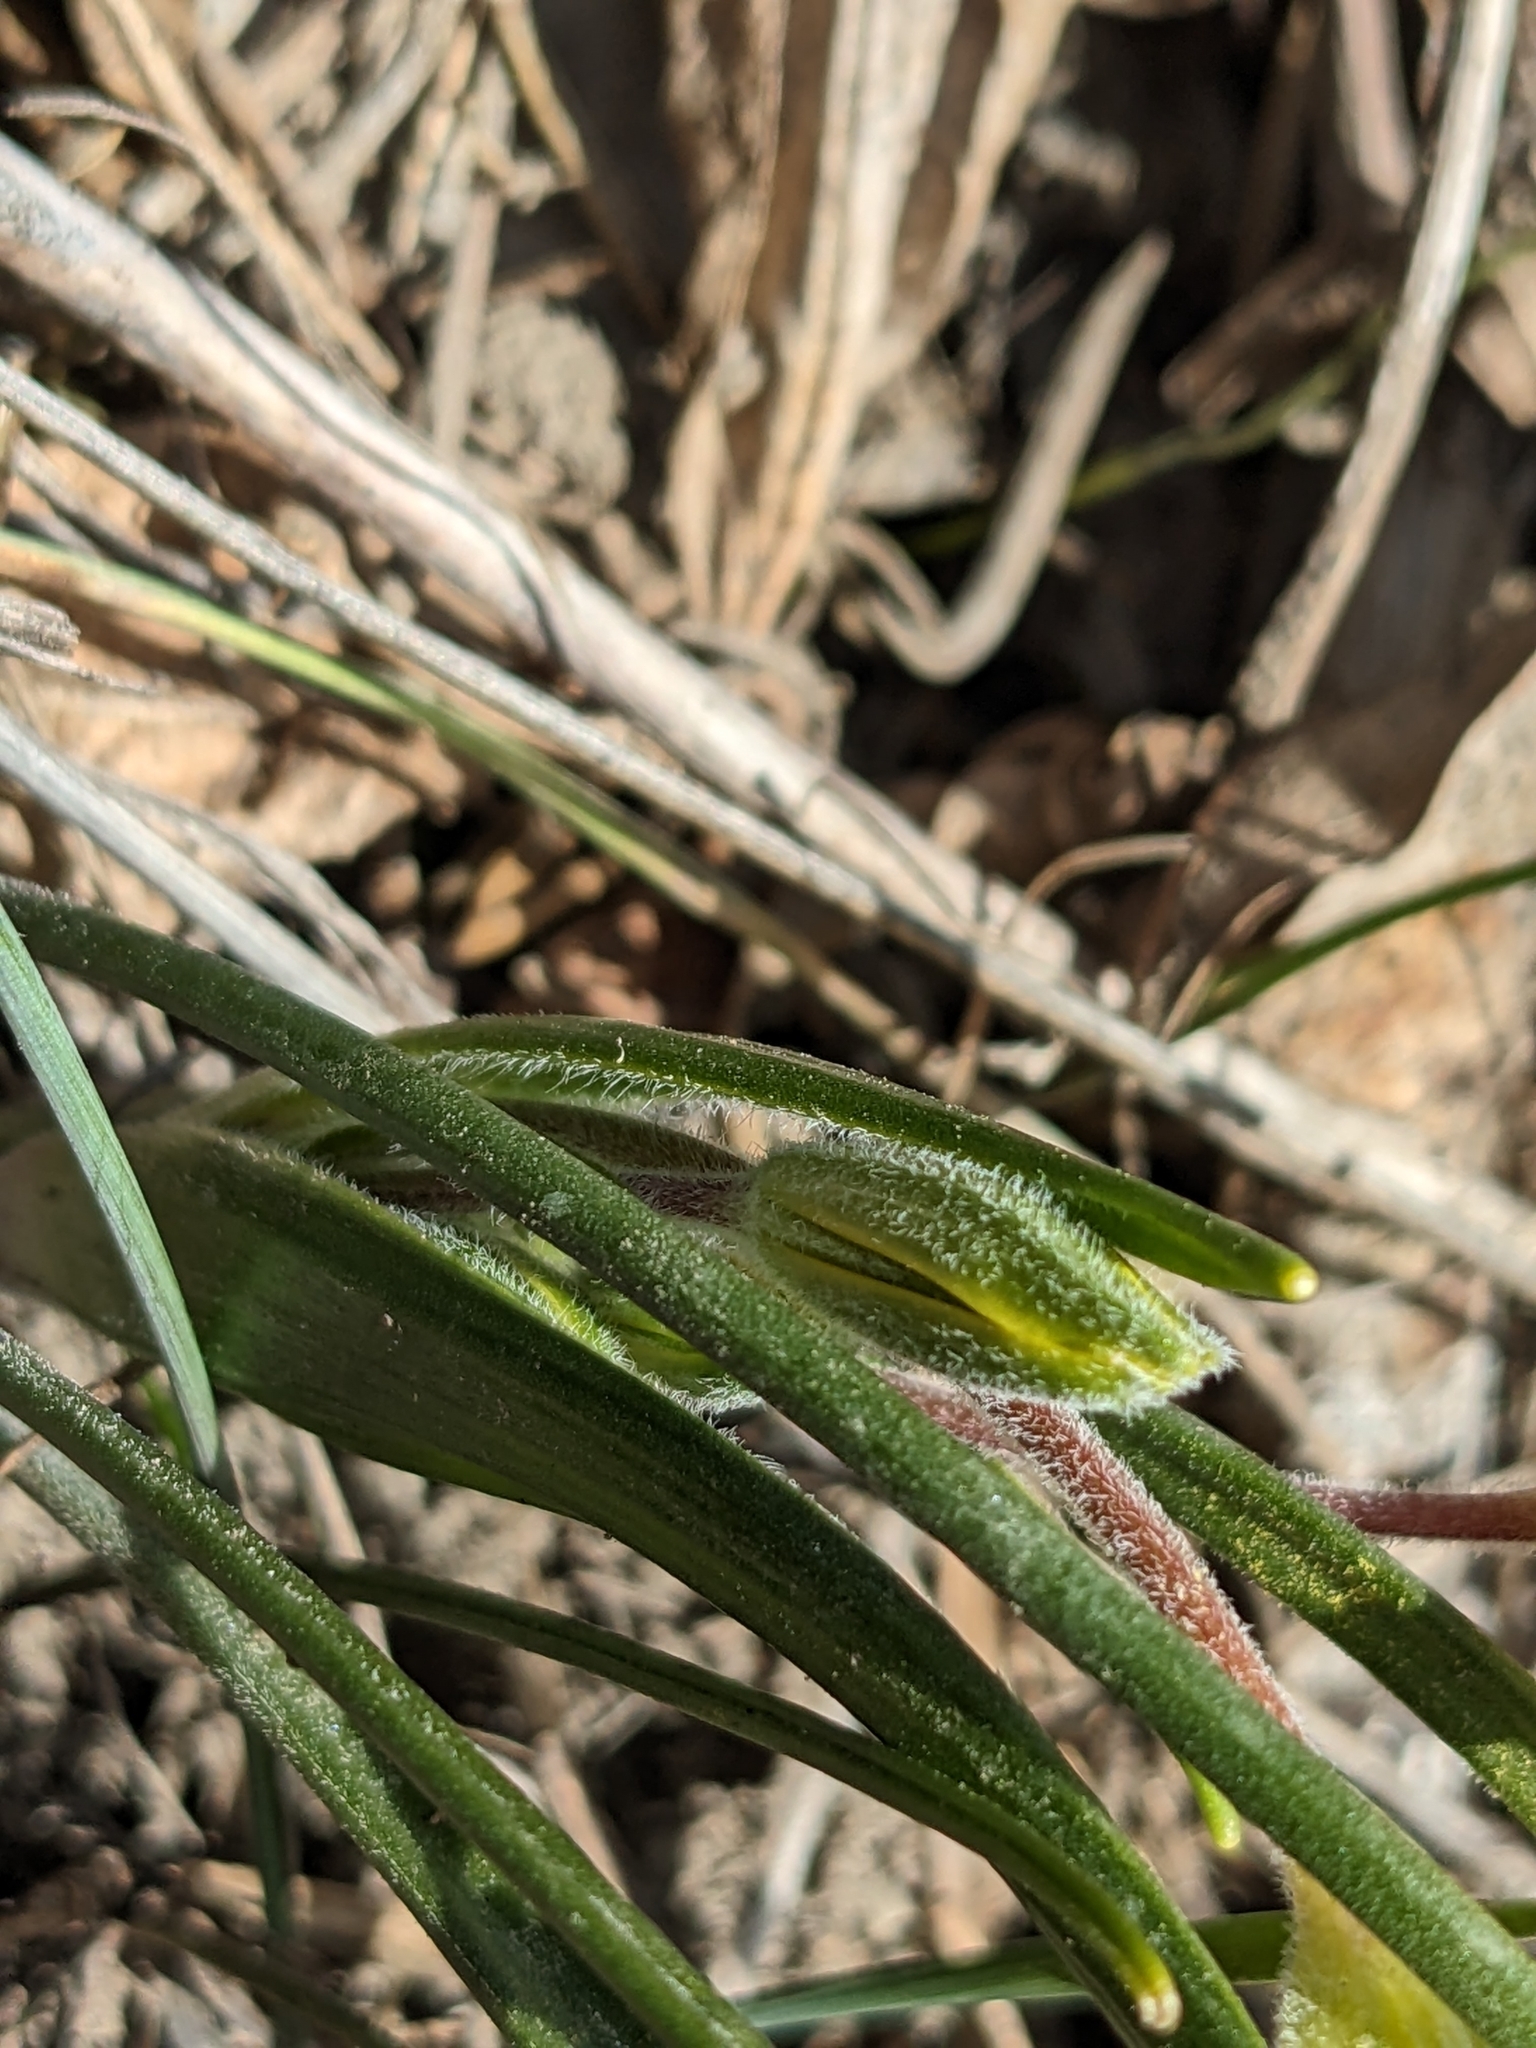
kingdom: Plantae
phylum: Tracheophyta
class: Liliopsida
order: Liliales
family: Liliaceae
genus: Gagea
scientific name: Gagea villosa
